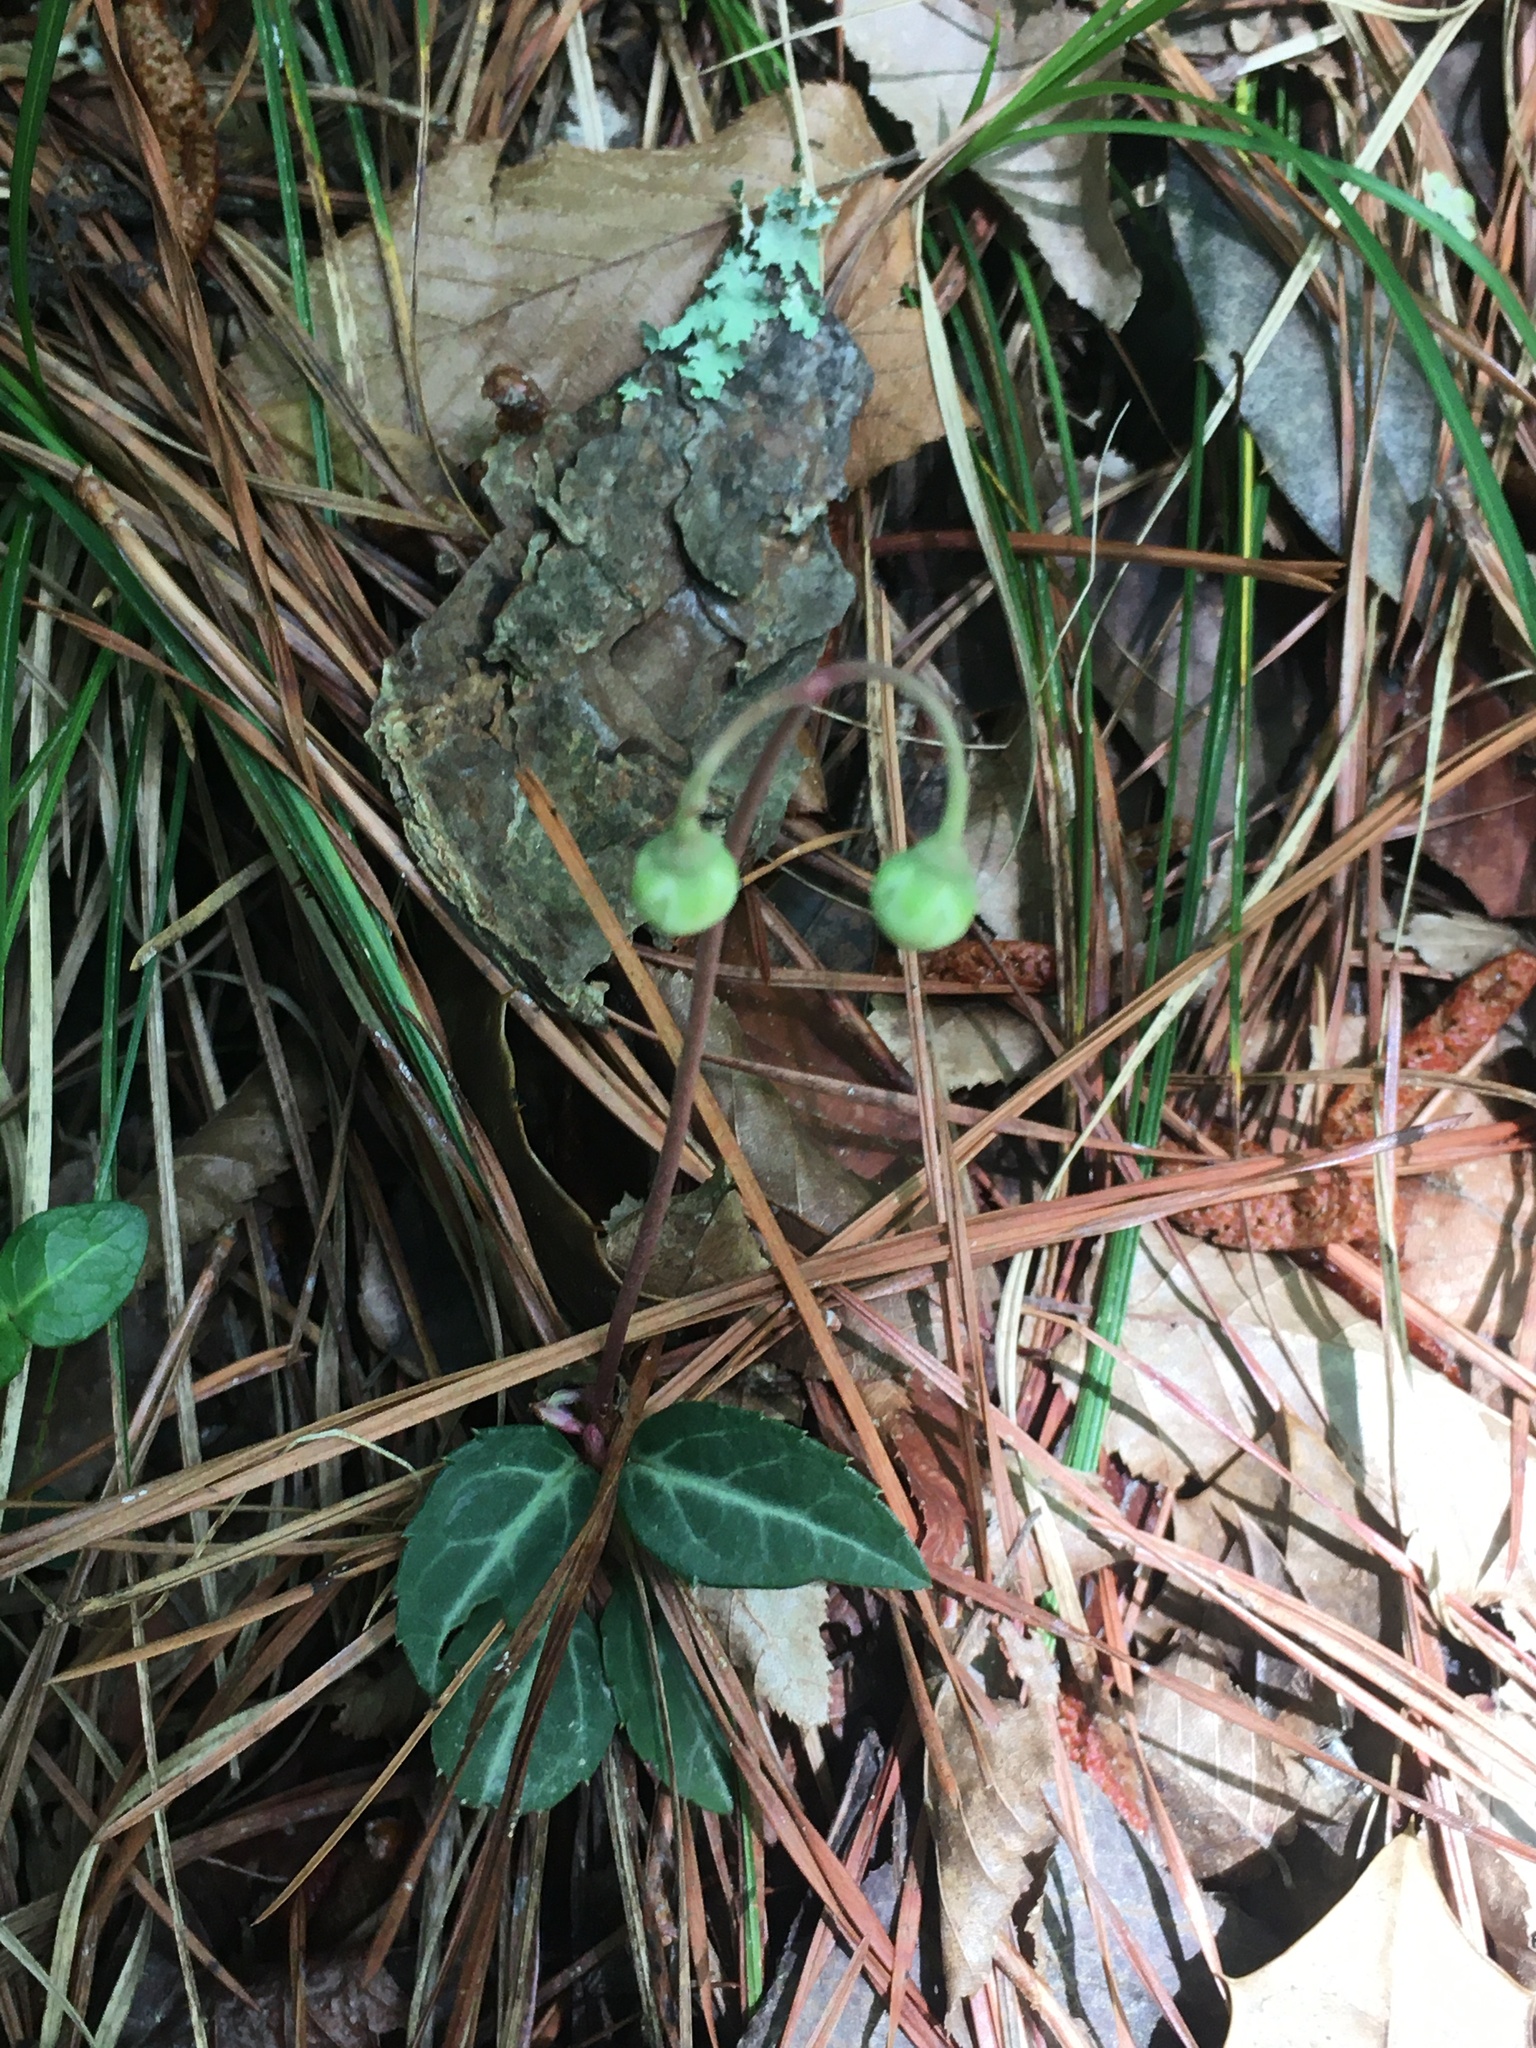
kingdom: Plantae
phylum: Tracheophyta
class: Magnoliopsida
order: Ericales
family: Ericaceae
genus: Chimaphila
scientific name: Chimaphila maculata
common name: Spotted pipsissewa
